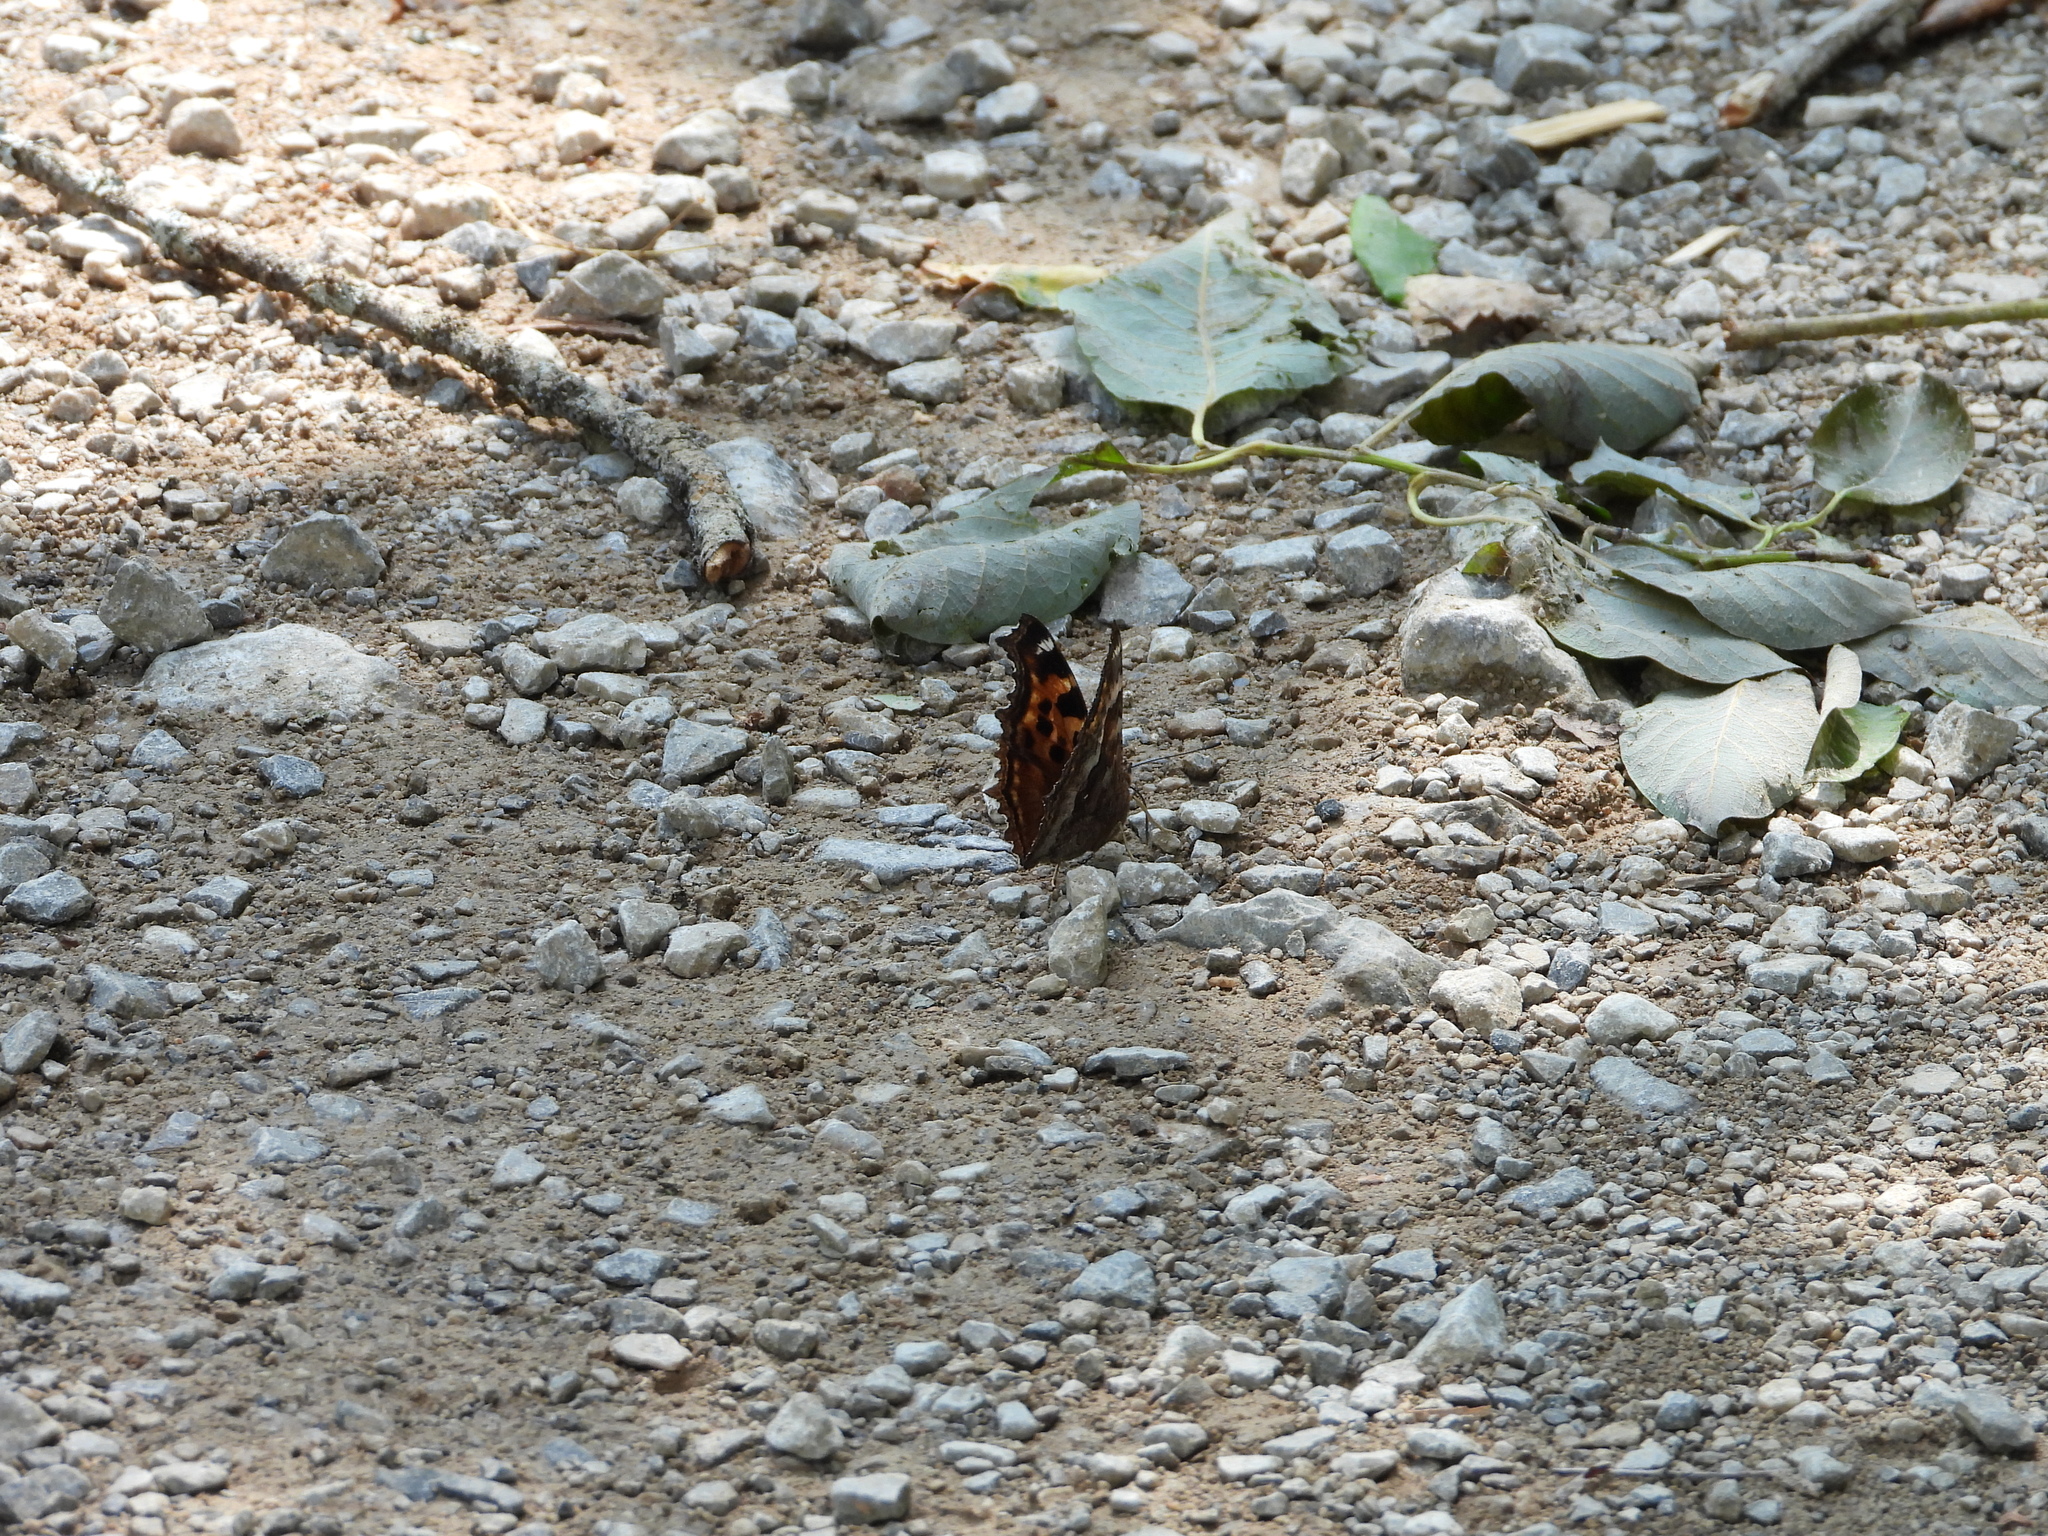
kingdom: Animalia
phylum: Arthropoda
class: Insecta
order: Lepidoptera
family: Nymphalidae
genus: Polygonia
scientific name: Polygonia vaualbum
